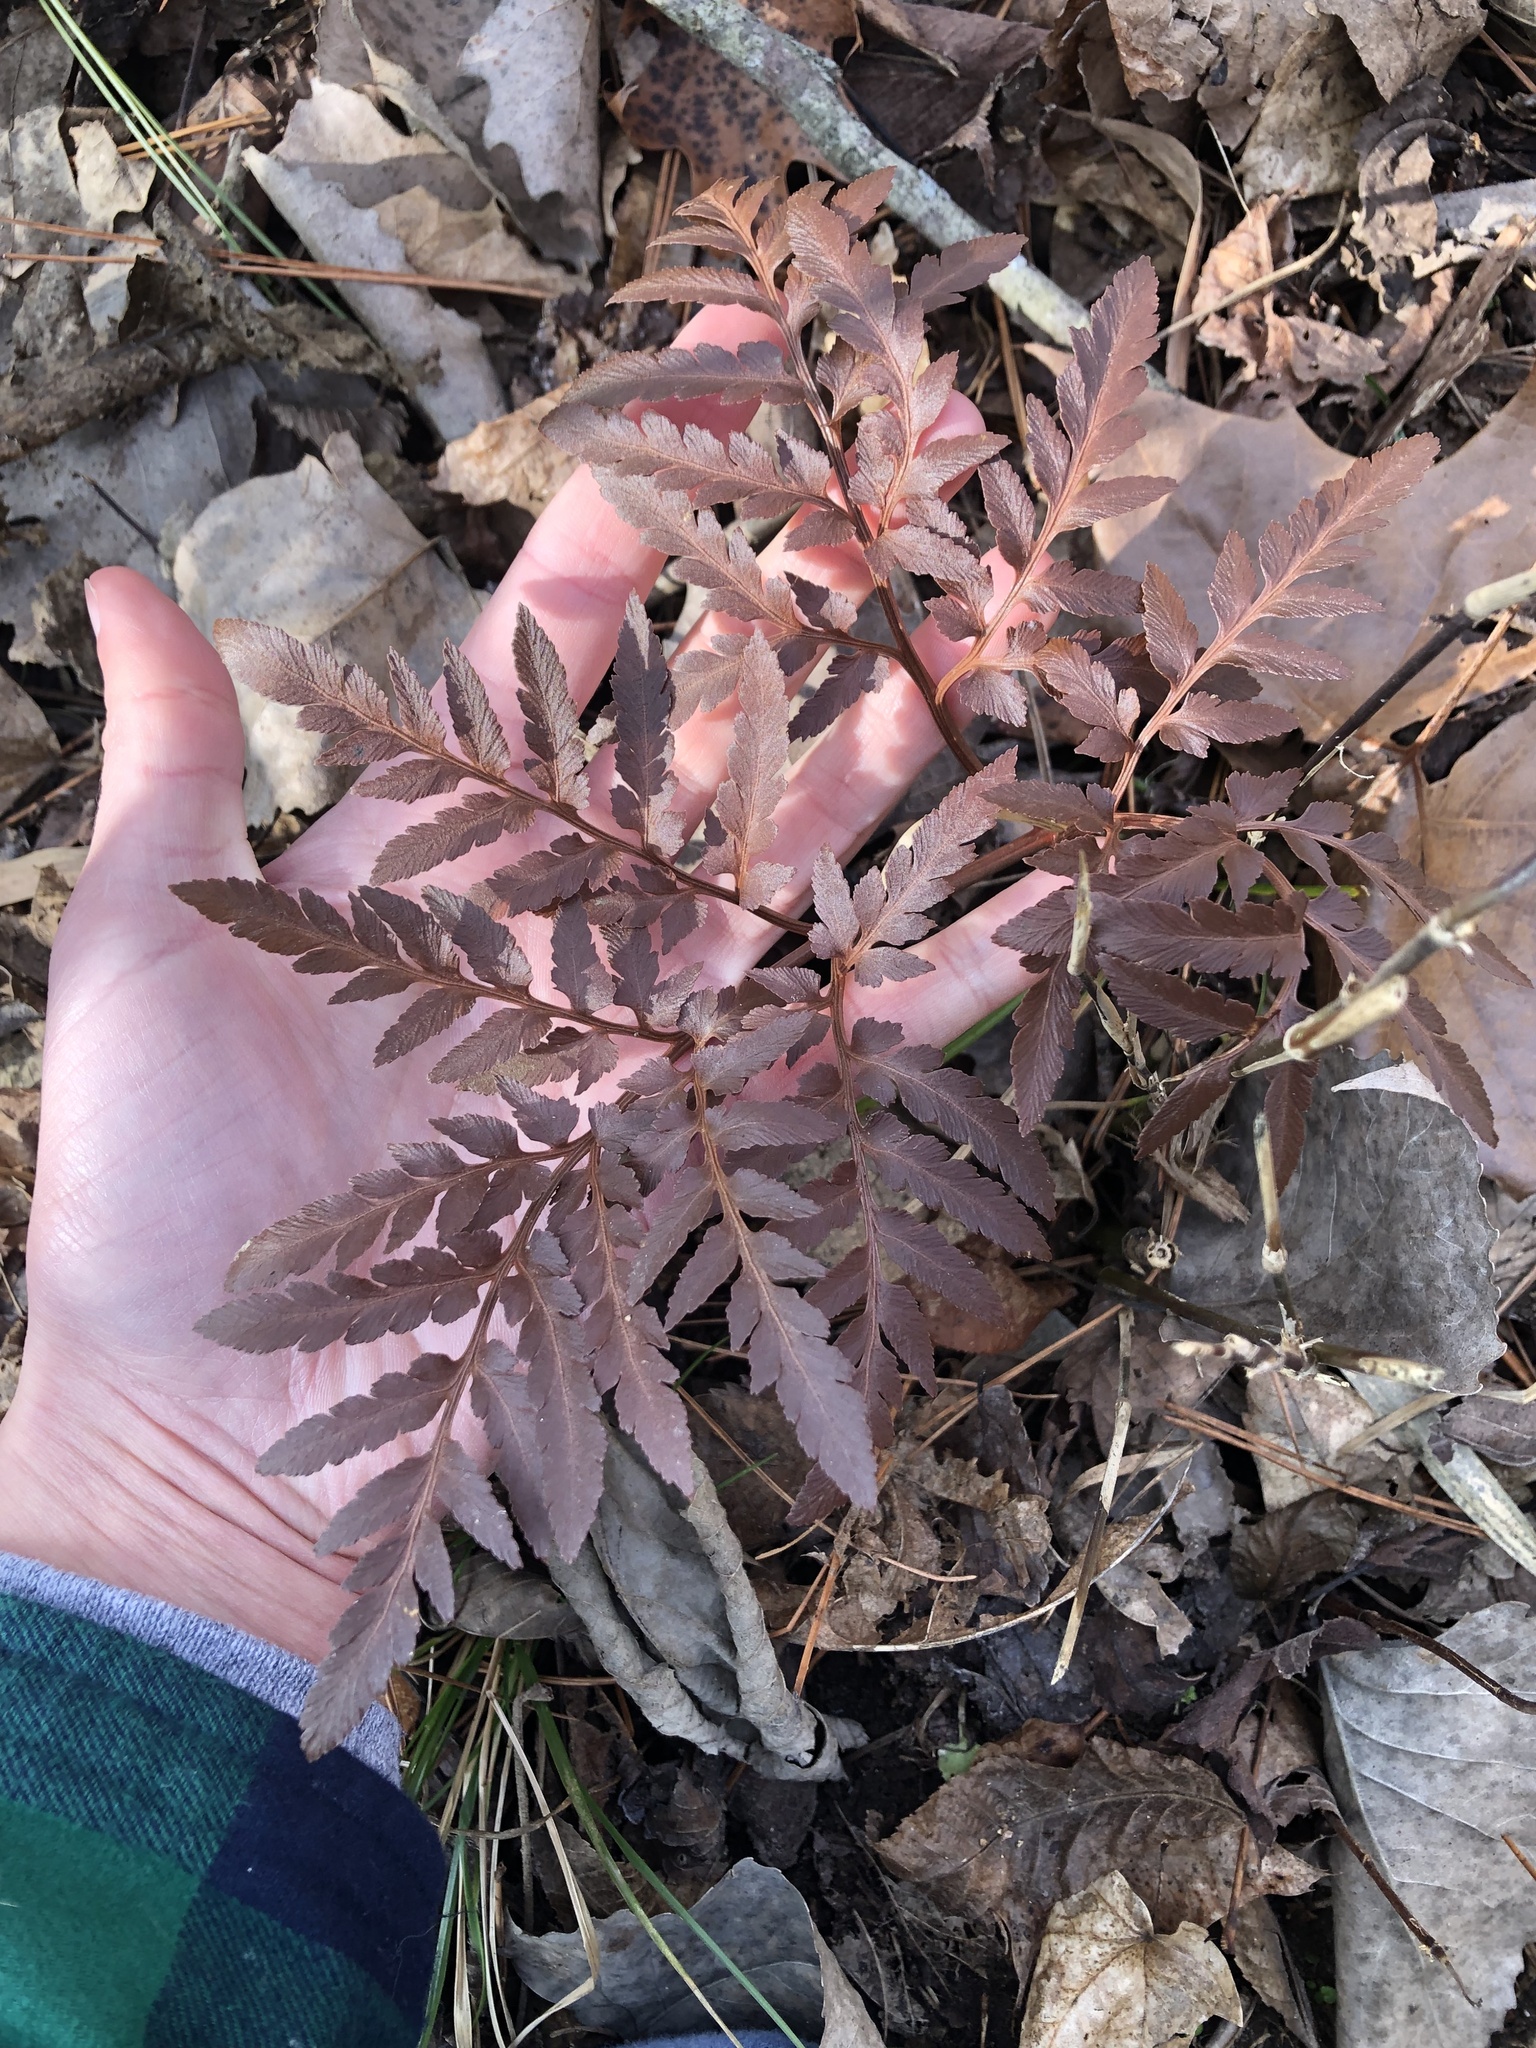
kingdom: Plantae
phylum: Tracheophyta
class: Polypodiopsida
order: Ophioglossales
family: Ophioglossaceae
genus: Sceptridium
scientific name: Sceptridium dissectum
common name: Cut-leaved grapefern
